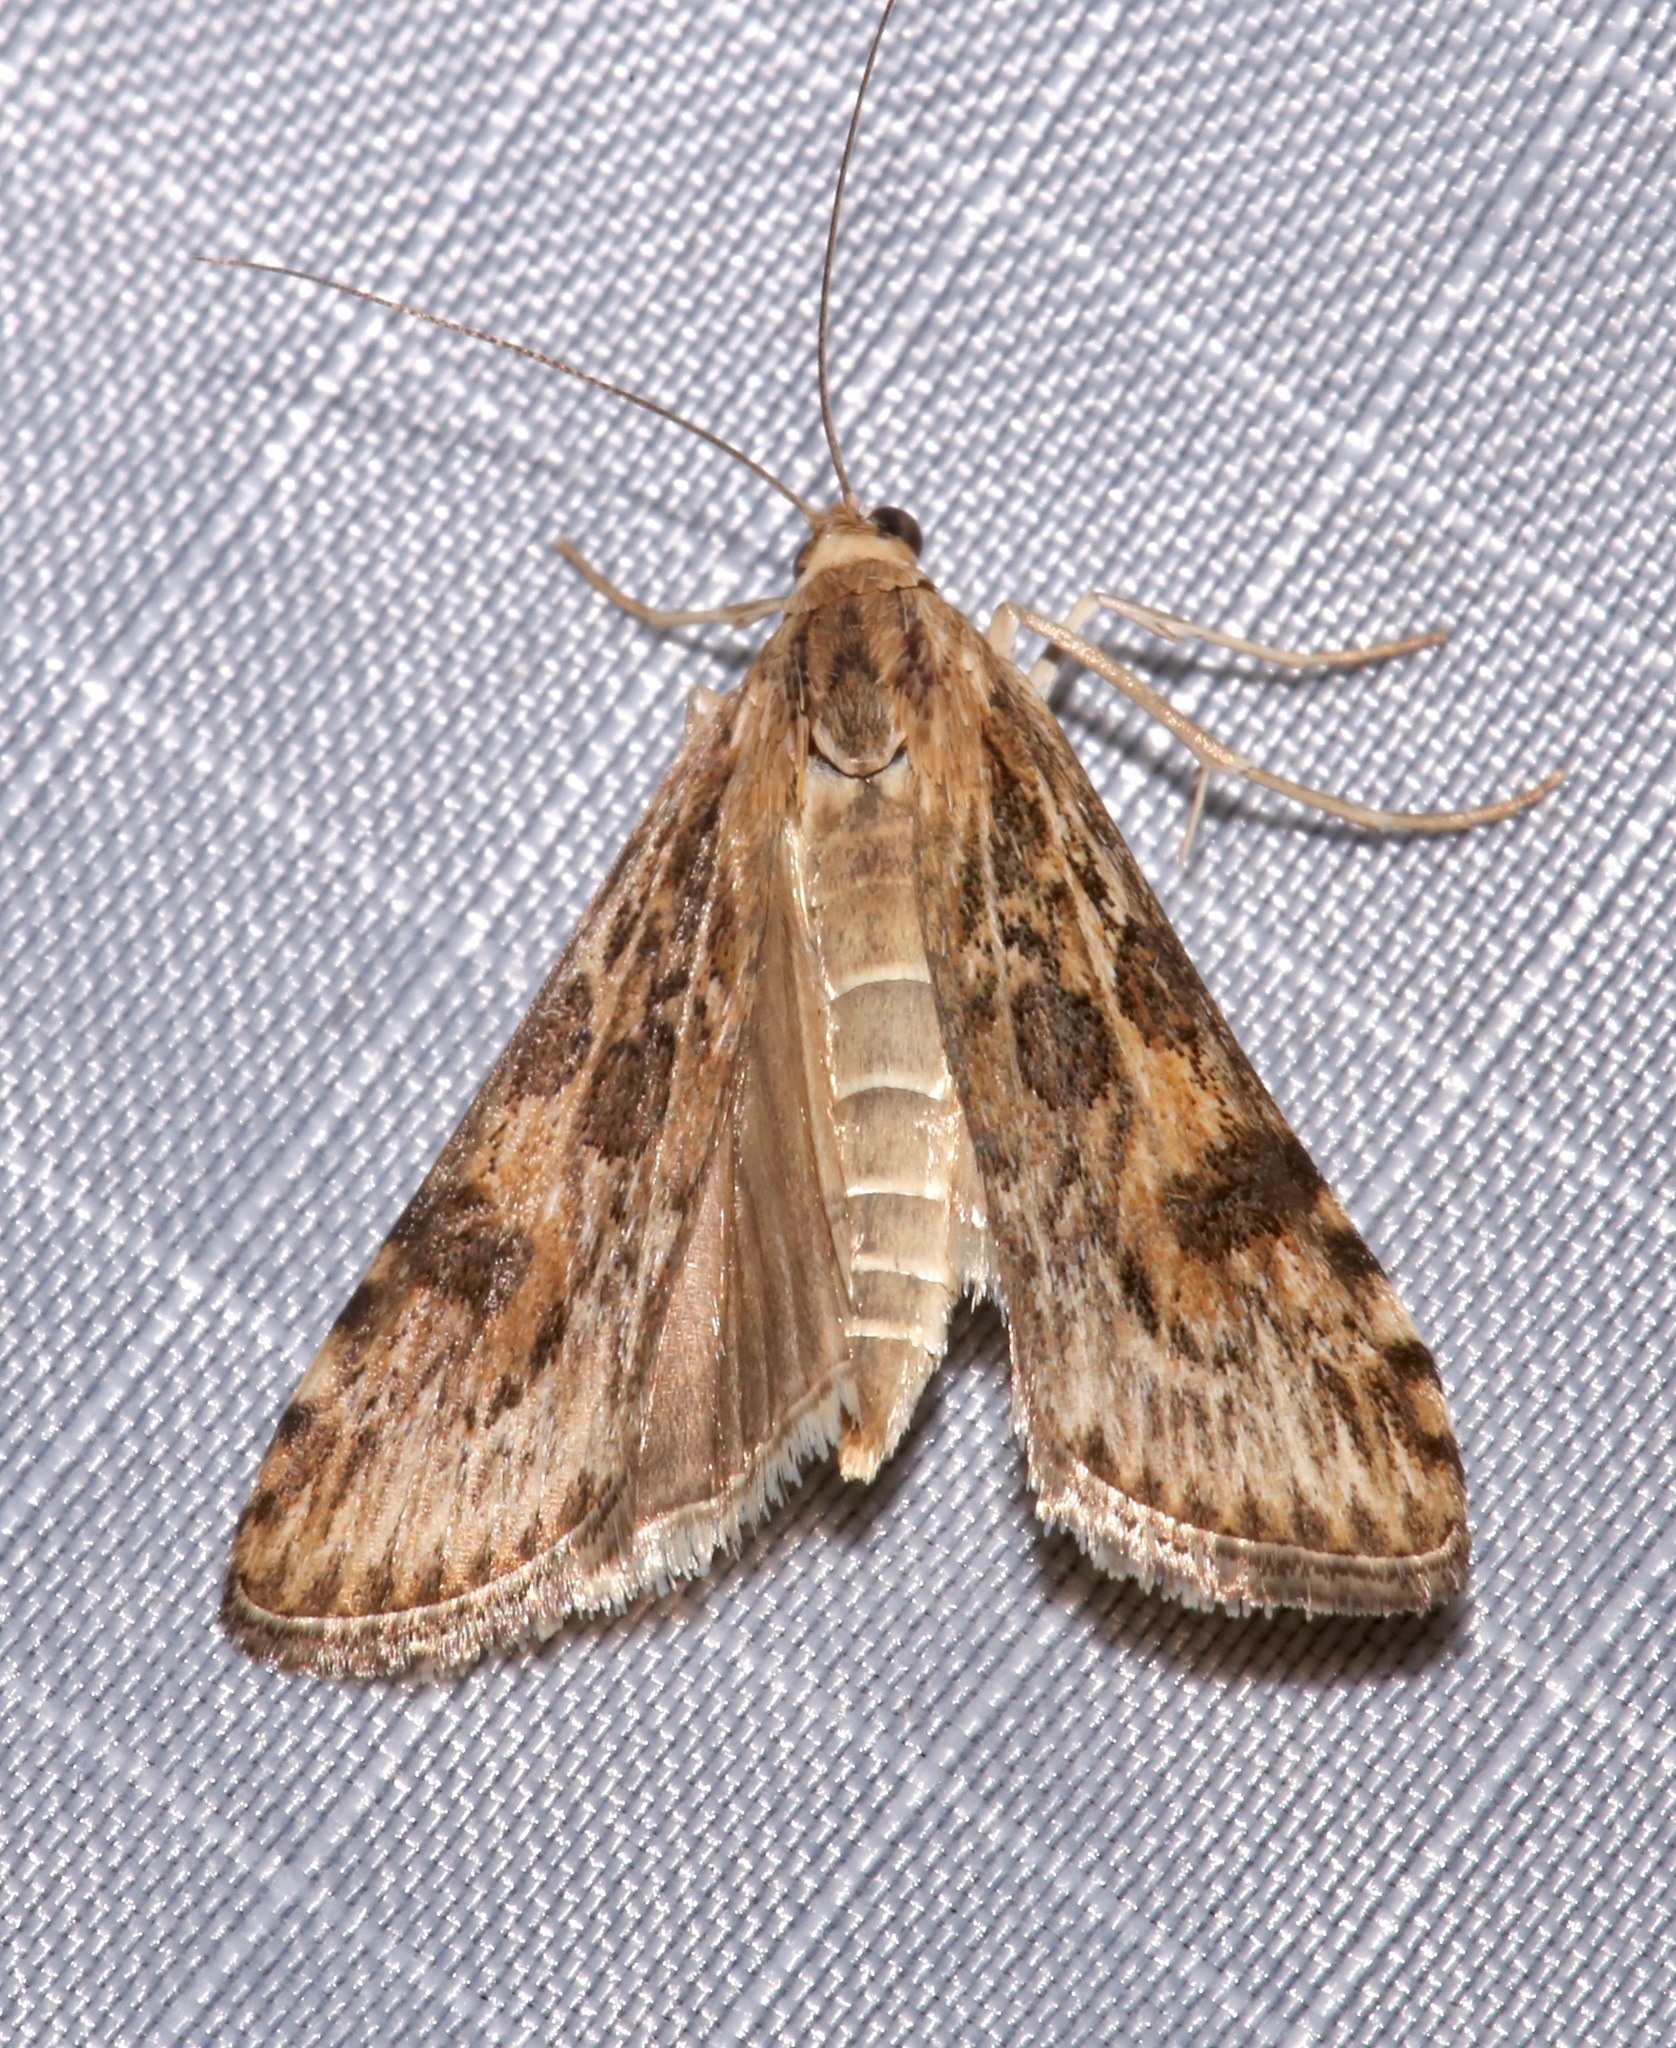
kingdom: Animalia
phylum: Arthropoda
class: Insecta
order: Lepidoptera
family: Crambidae
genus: Nomophila
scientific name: Nomophila nearctica
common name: American rush veneer
